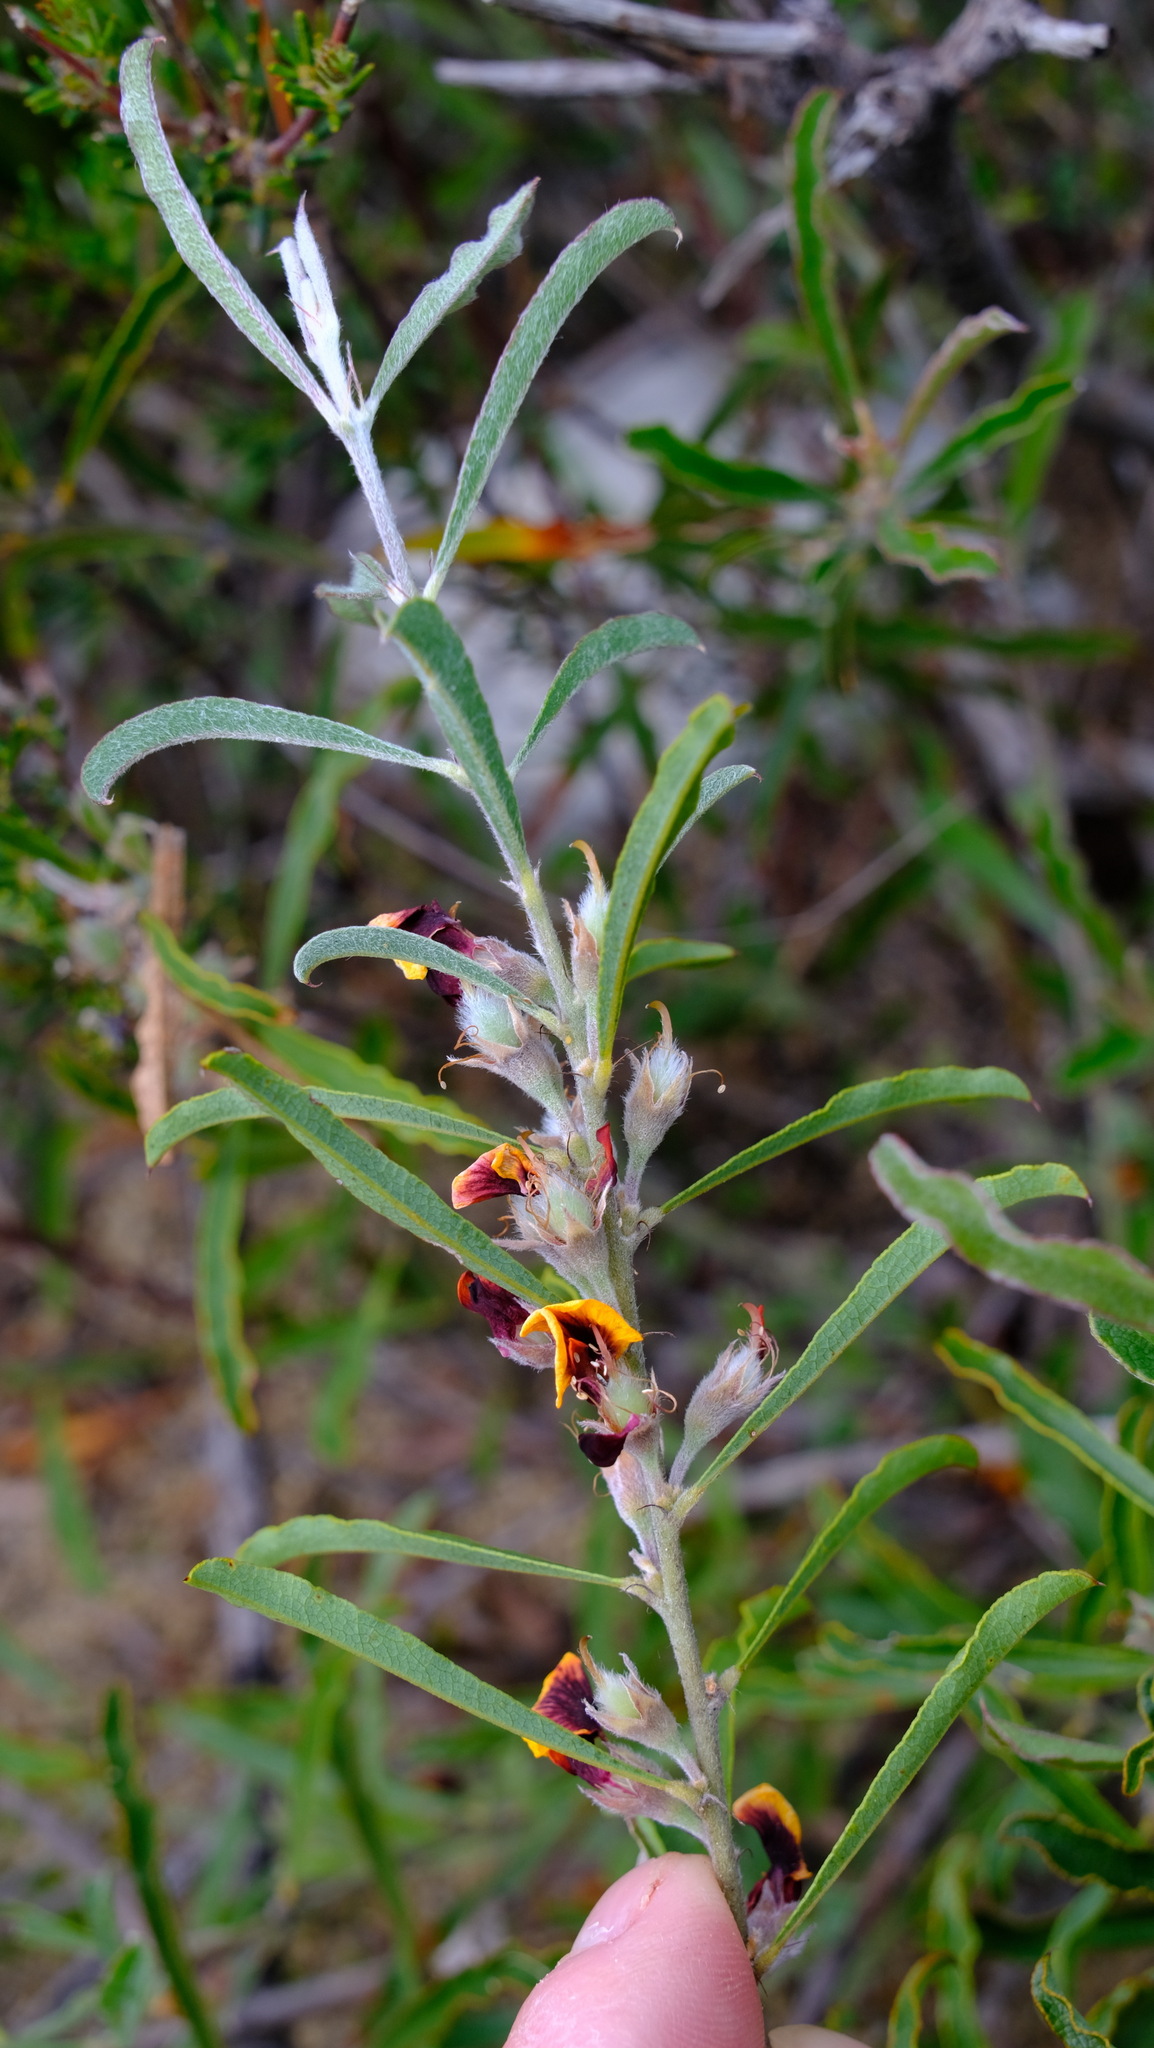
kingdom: Plantae
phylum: Tracheophyta
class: Magnoliopsida
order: Fabales
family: Fabaceae
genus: Gastrolobium
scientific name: Gastrolobium linearifolium
